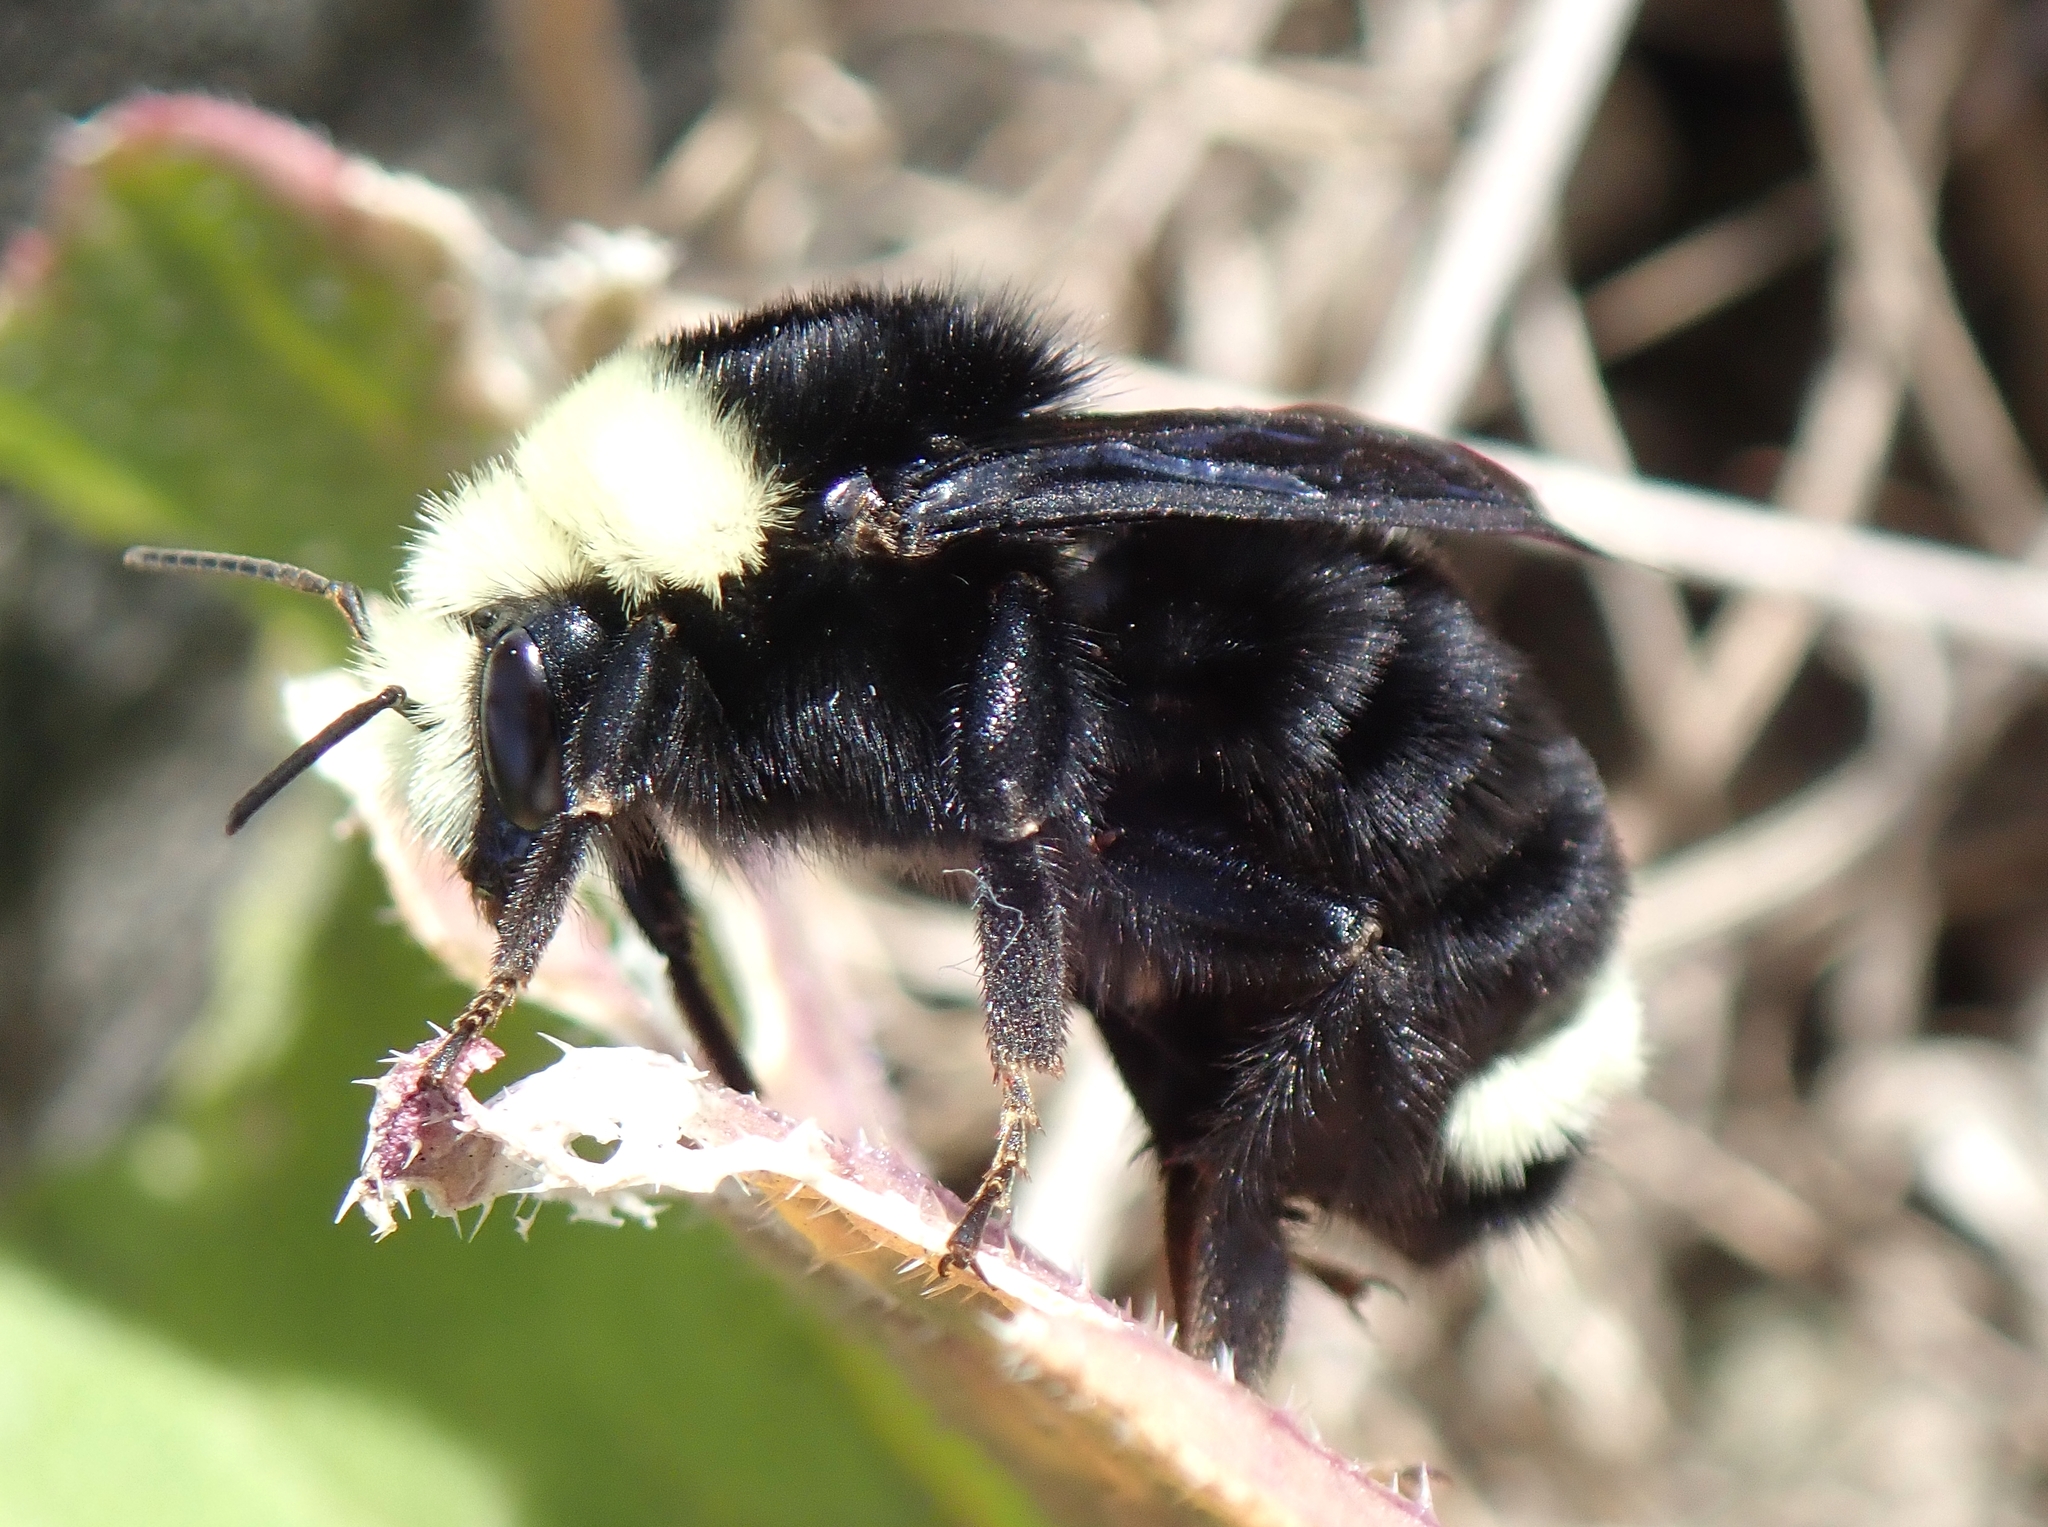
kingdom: Animalia
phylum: Arthropoda
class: Insecta
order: Hymenoptera
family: Apidae
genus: Bombus
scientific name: Bombus vosnesenskii
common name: Vosnesensky bumble bee
